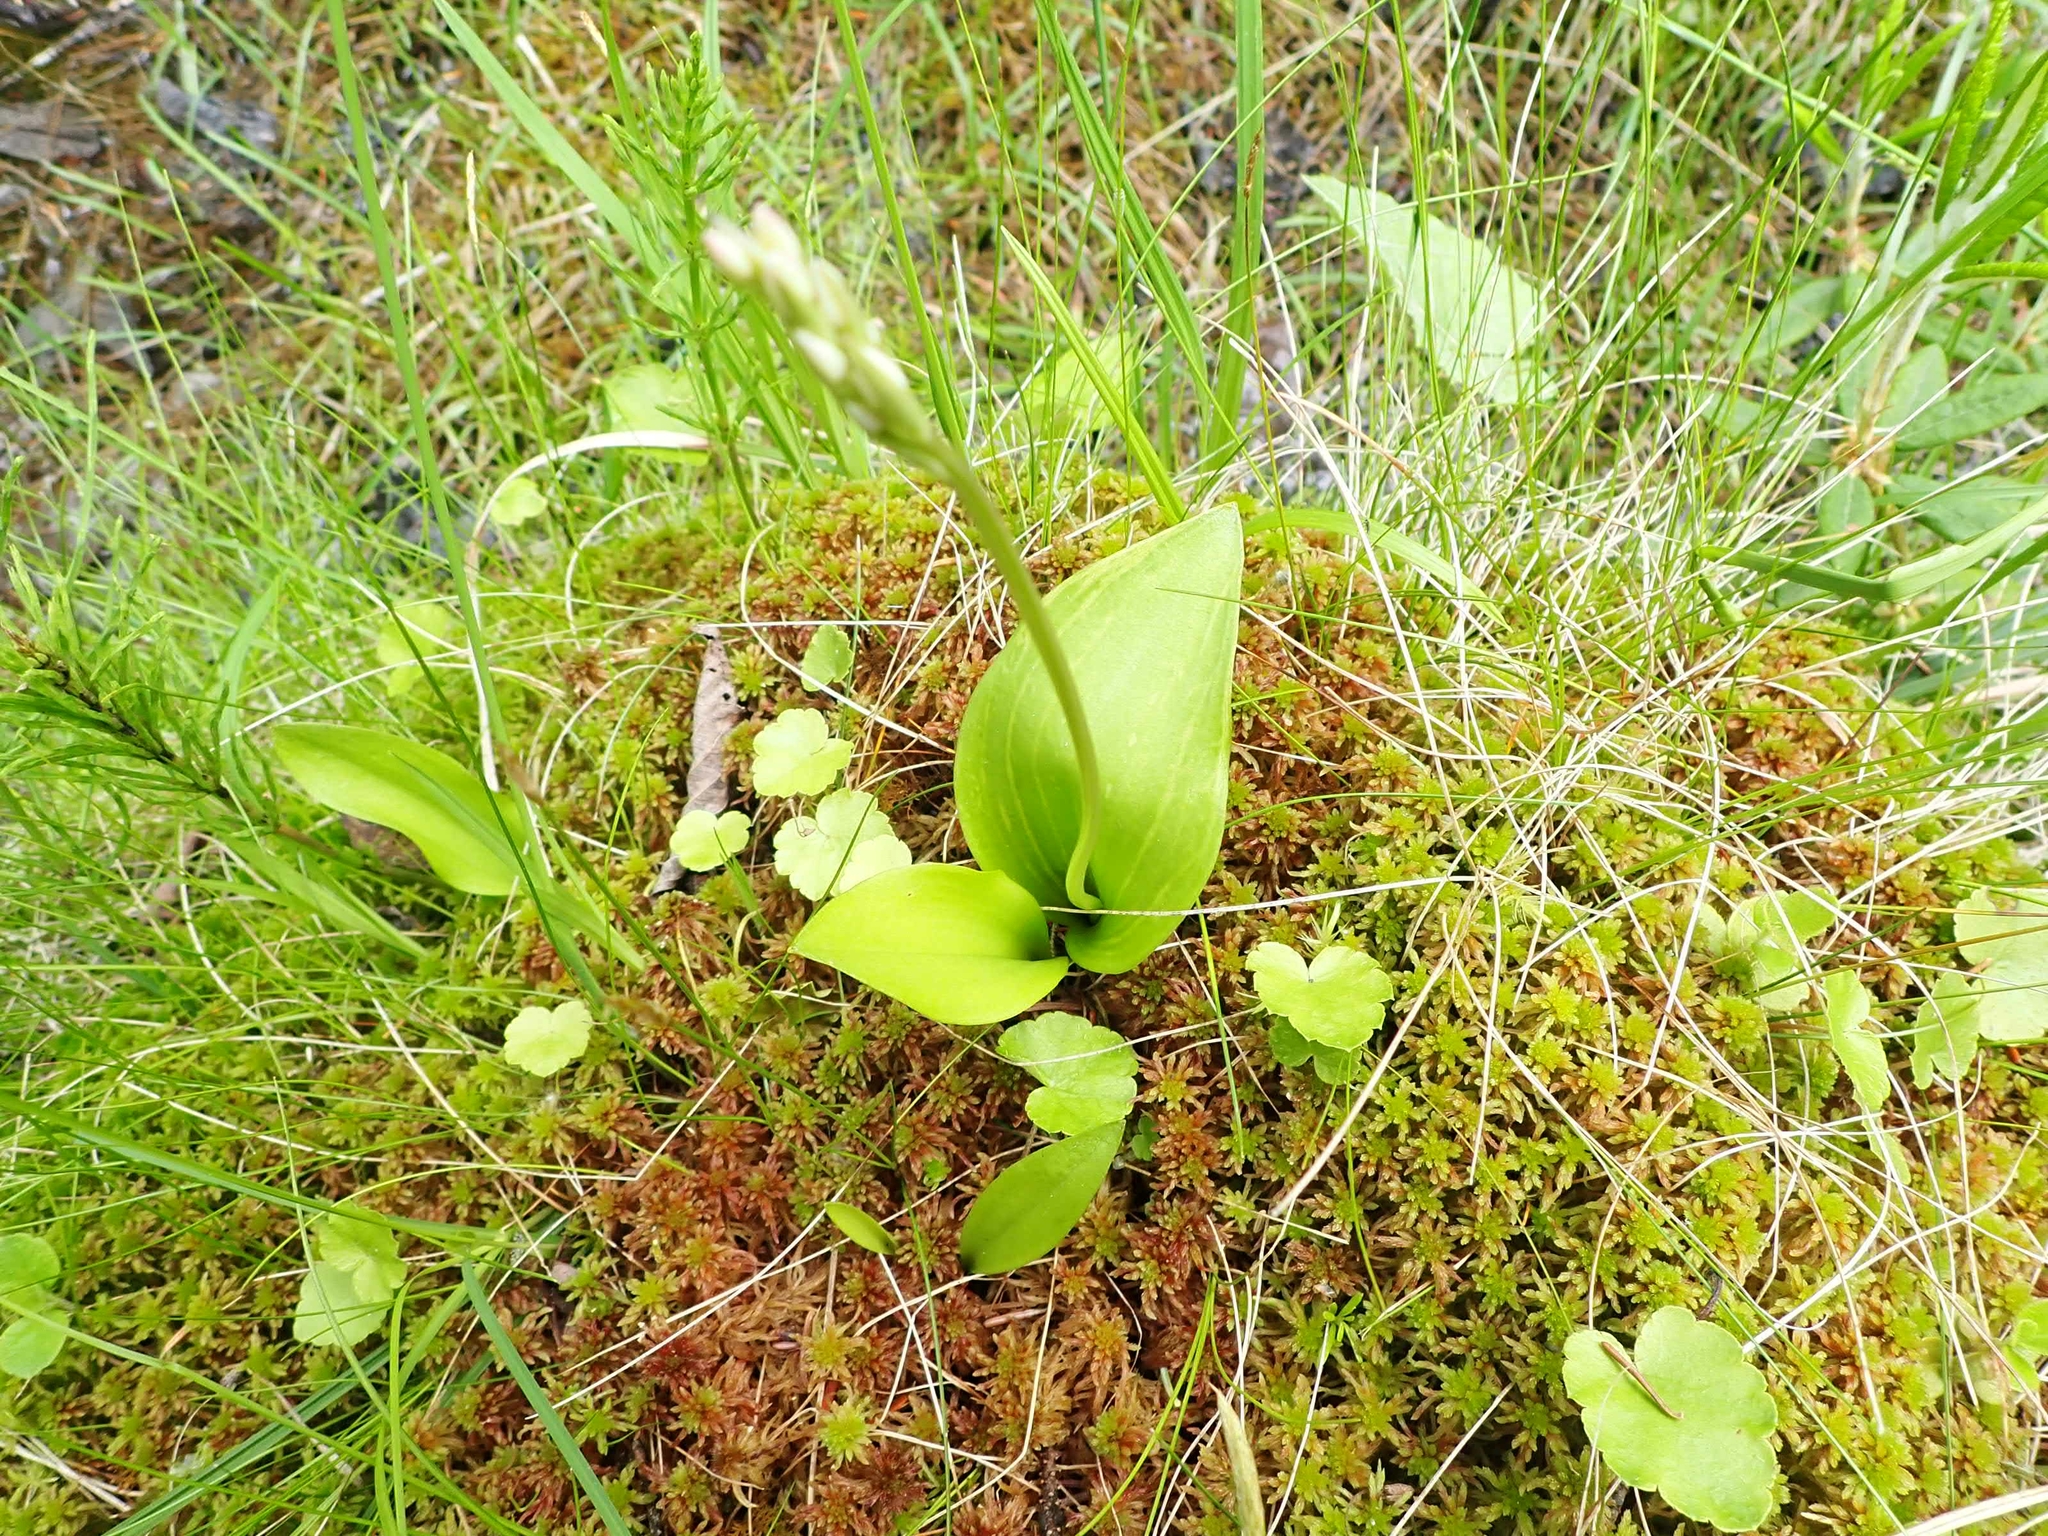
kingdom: Plantae
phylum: Tracheophyta
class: Liliopsida
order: Asparagales
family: Orchidaceae
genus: Galearis
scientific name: Galearis rotundifolia
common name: One-leaved orchis
